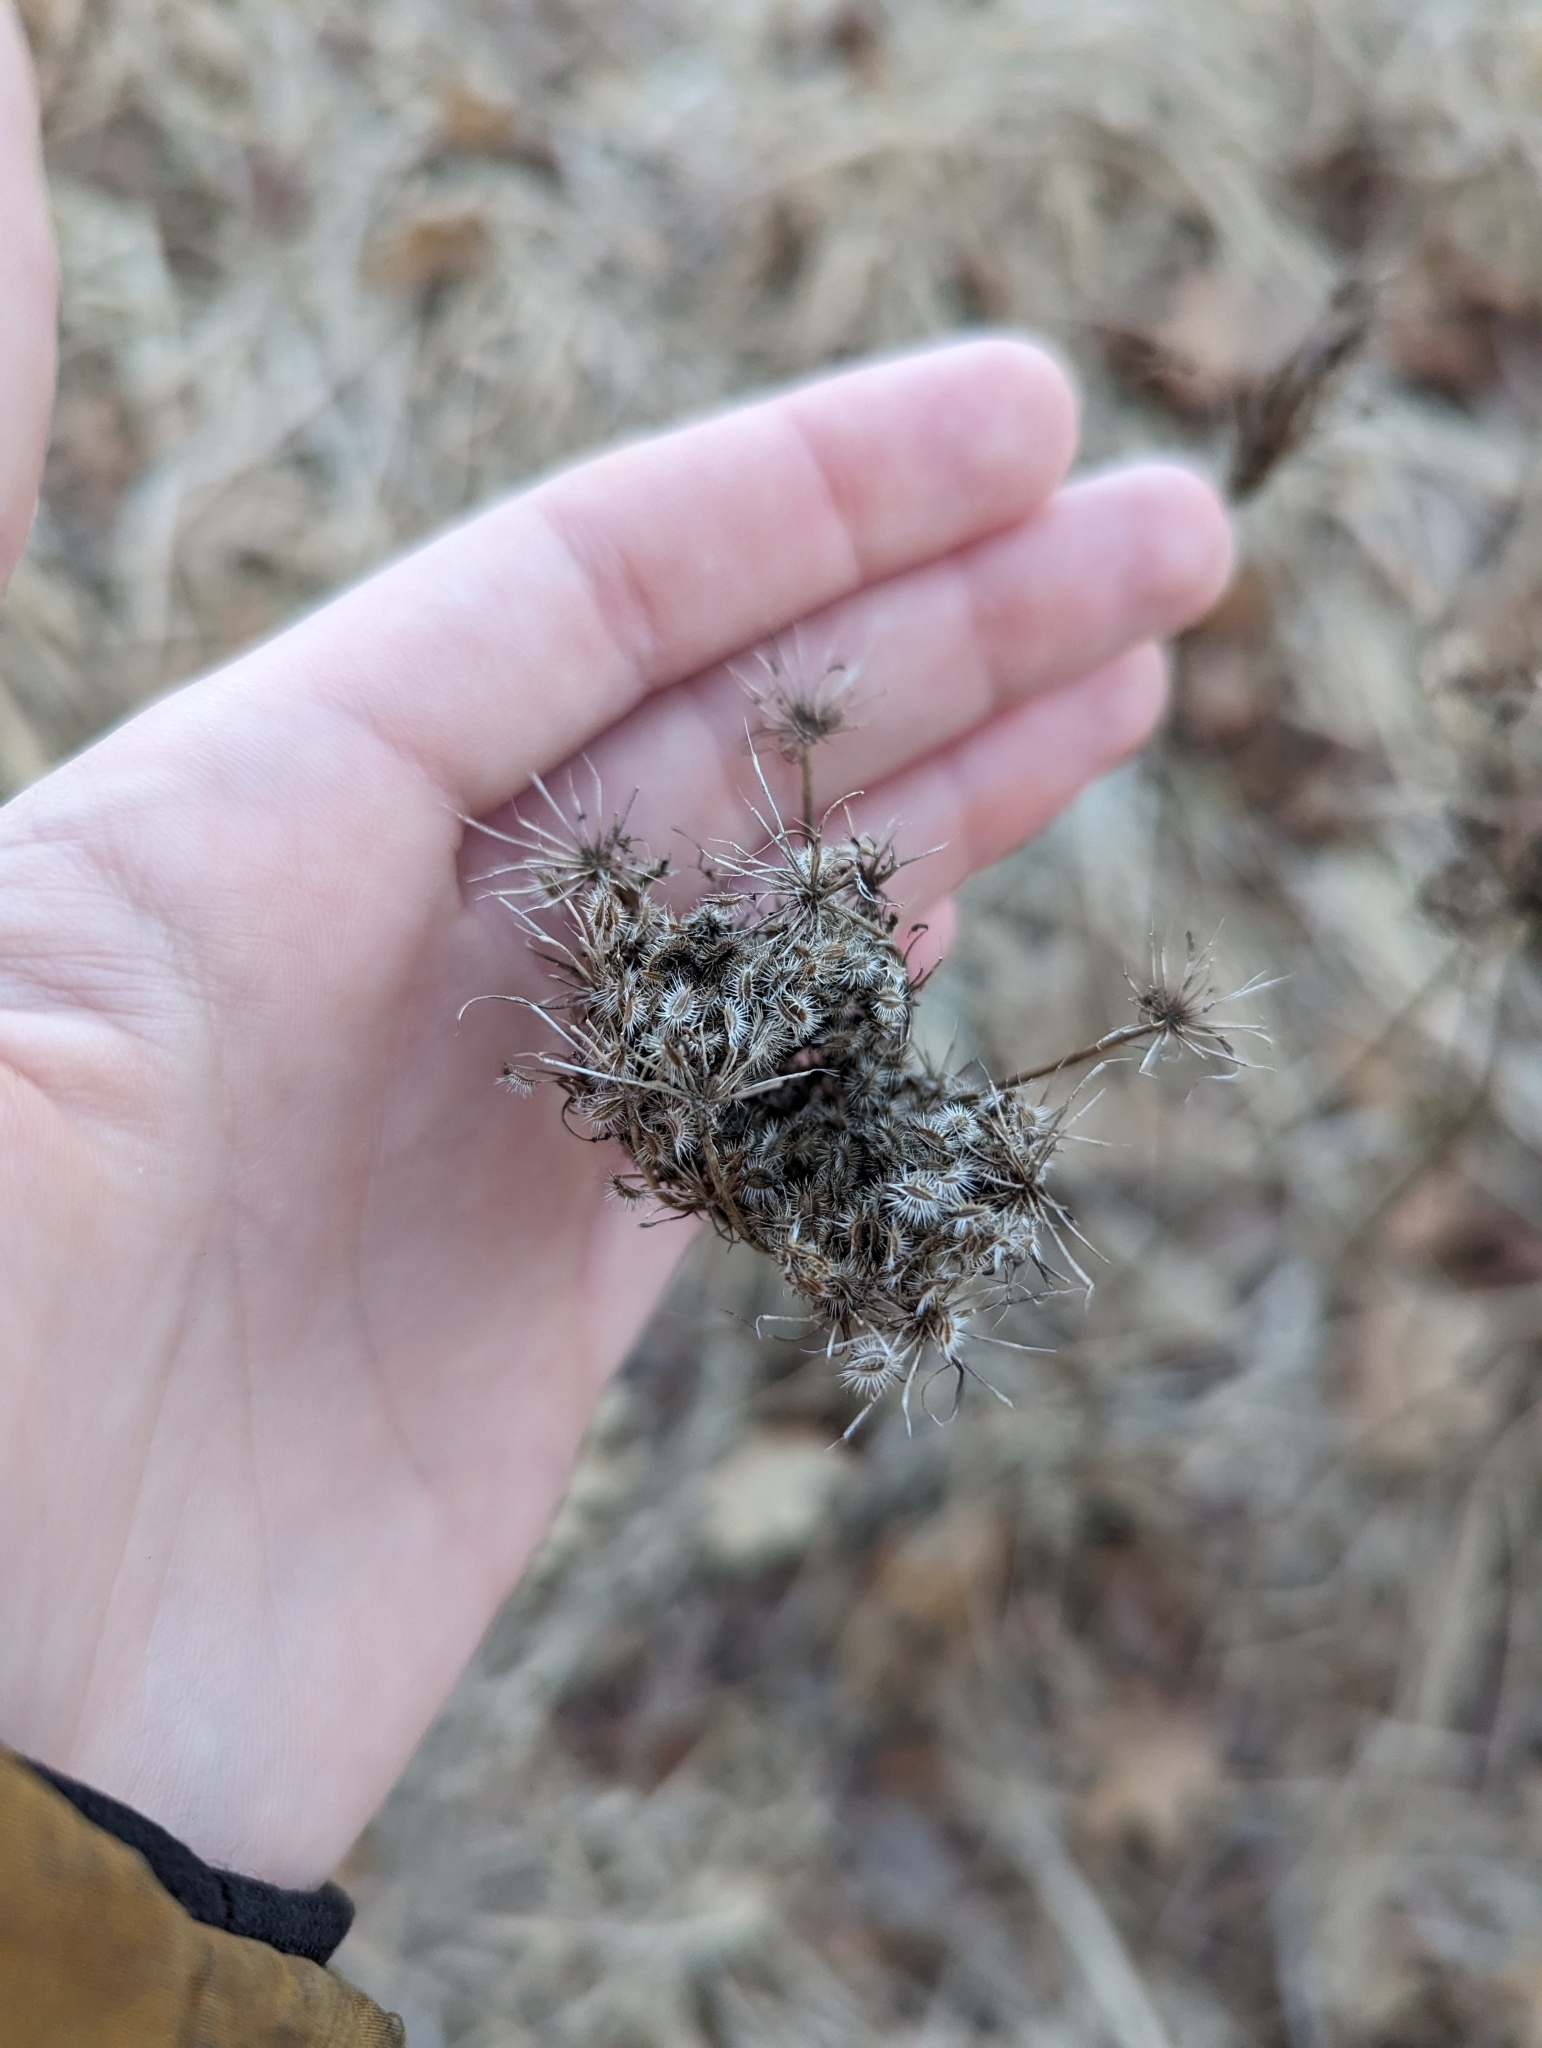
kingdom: Plantae
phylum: Tracheophyta
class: Magnoliopsida
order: Apiales
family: Apiaceae
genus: Daucus
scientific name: Daucus carota
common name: Wild carrot
